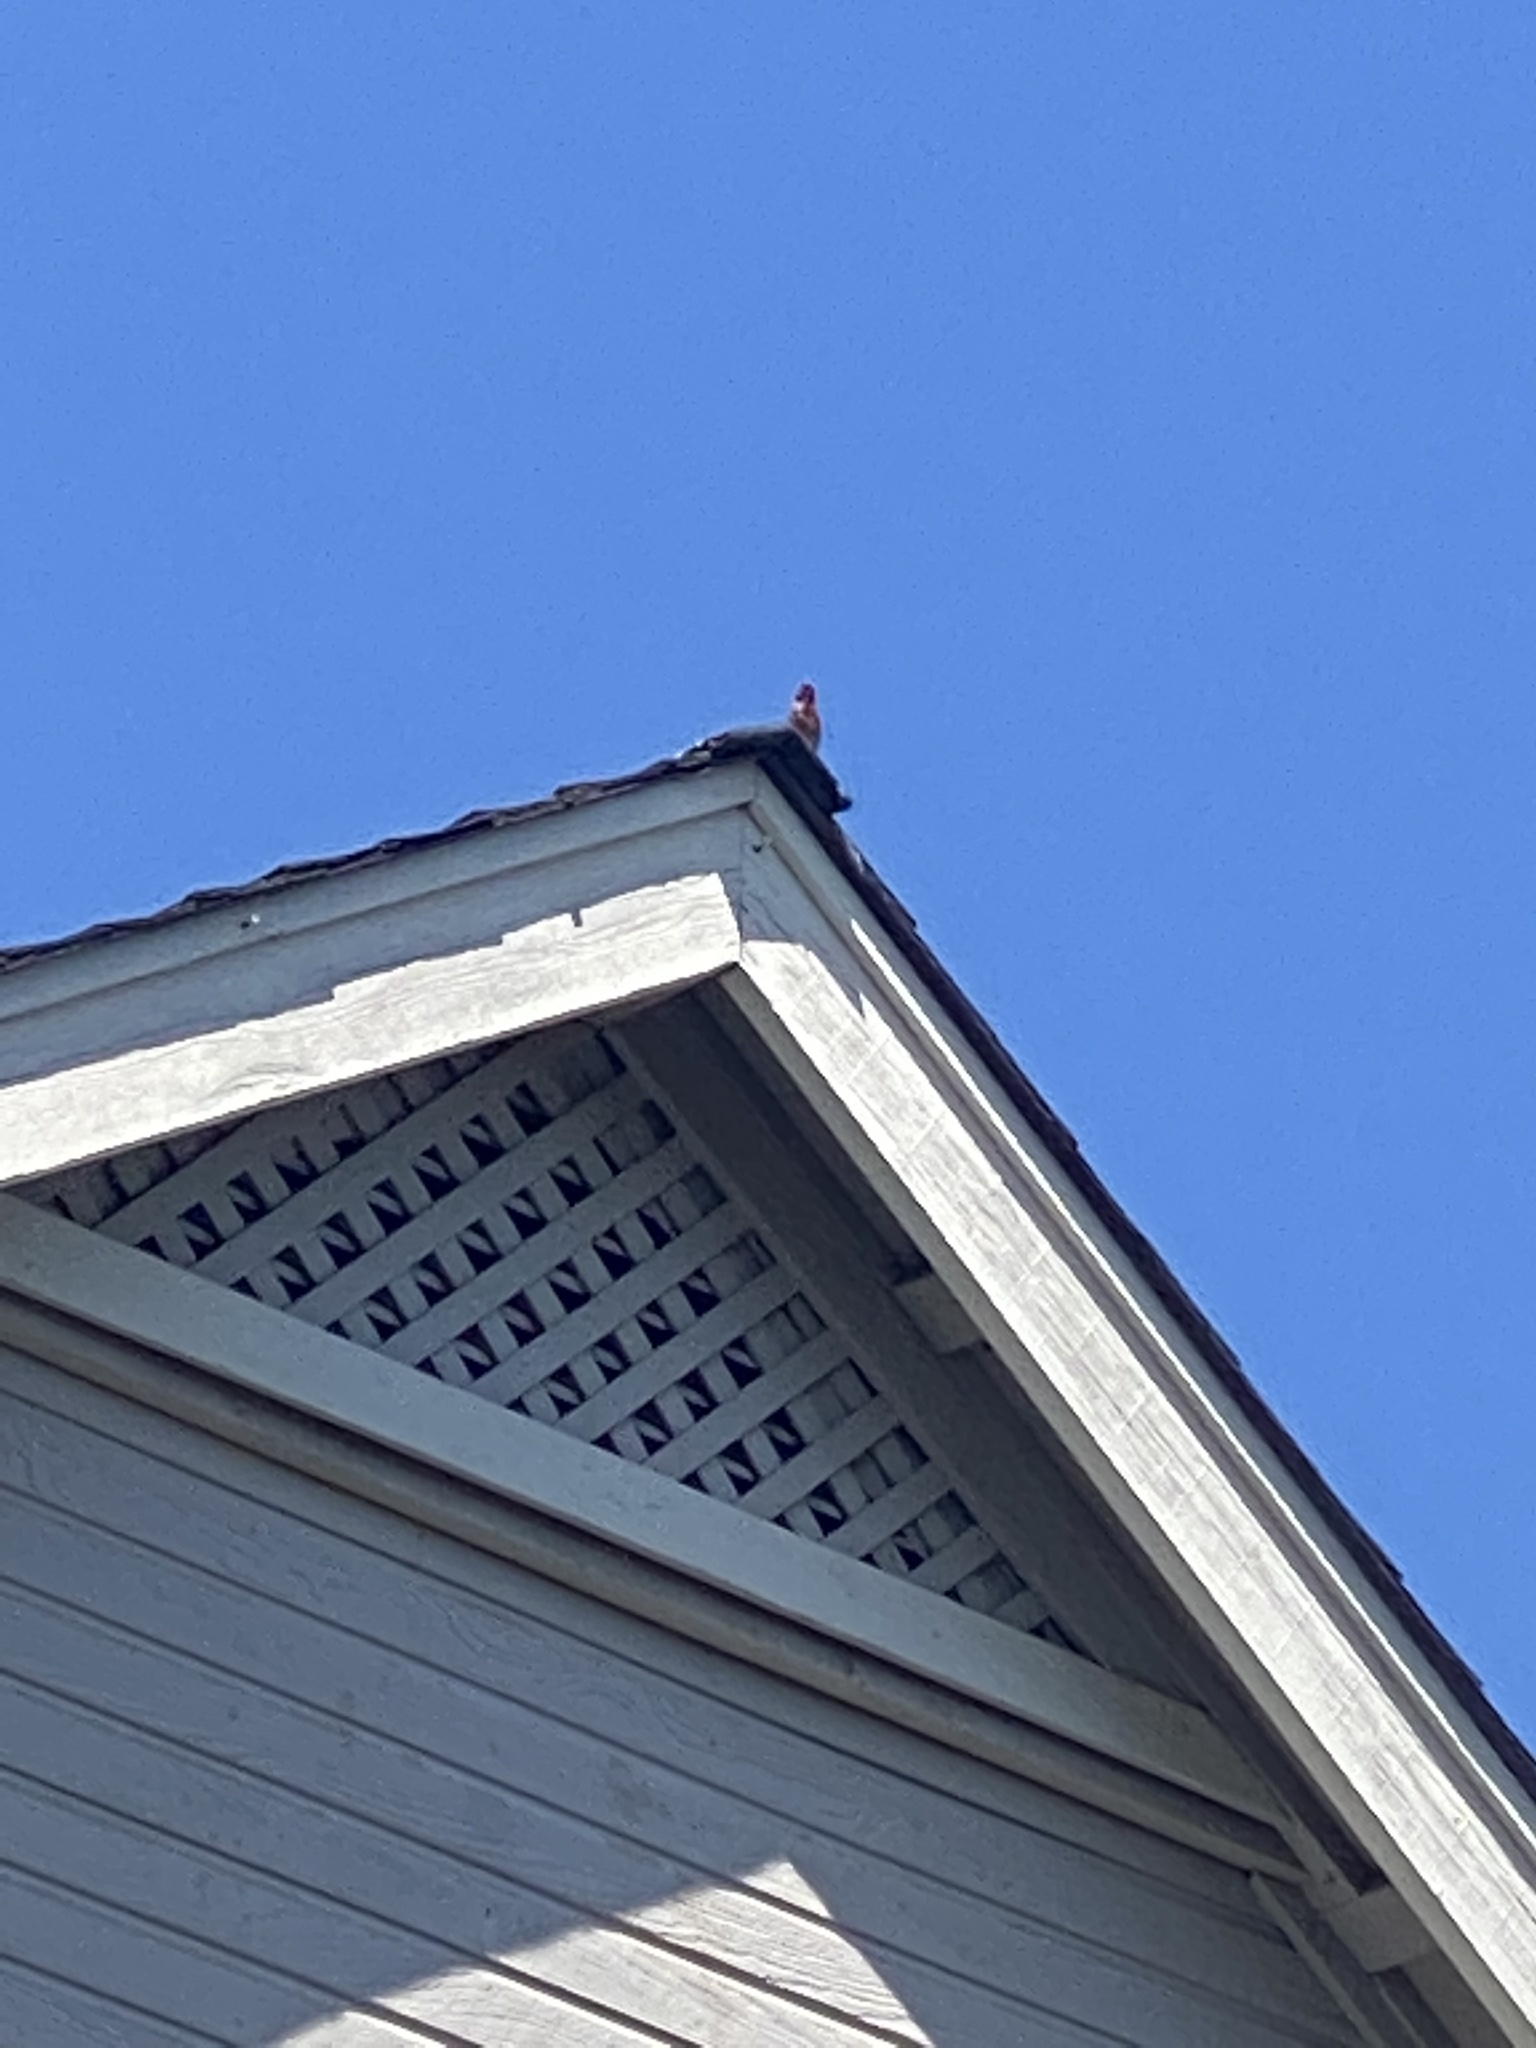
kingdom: Animalia
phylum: Chordata
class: Aves
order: Passeriformes
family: Fringillidae
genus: Haemorhous
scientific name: Haemorhous mexicanus
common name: House finch
